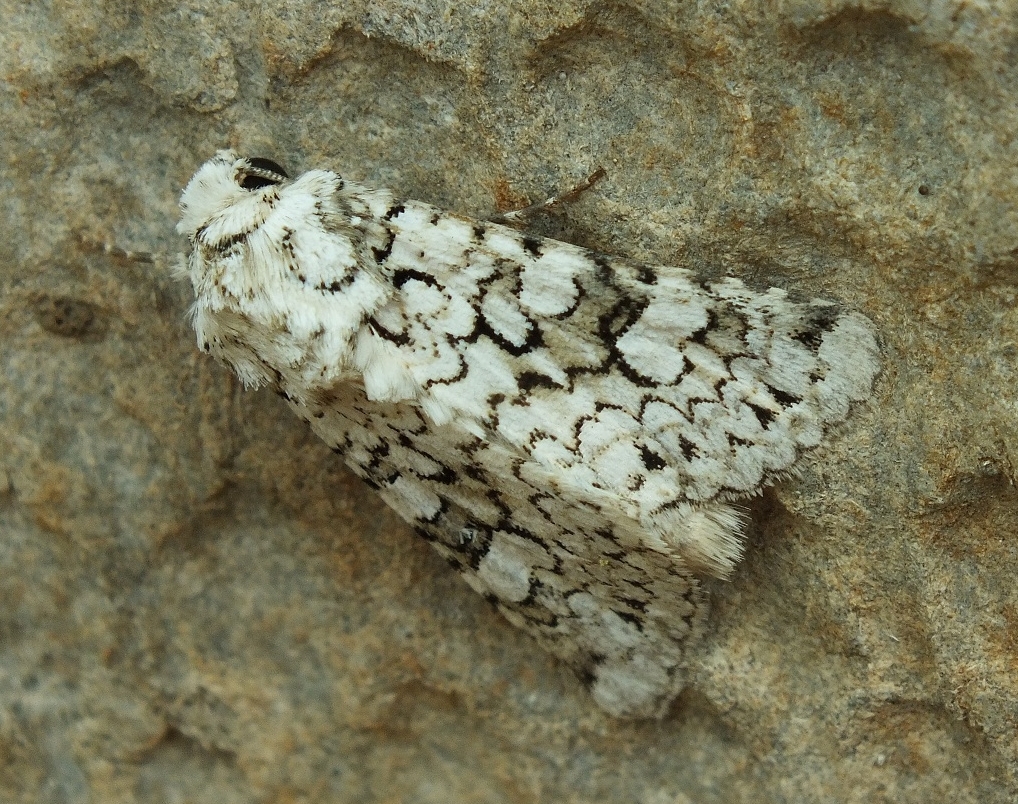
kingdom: Animalia
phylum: Arthropoda
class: Insecta
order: Lepidoptera
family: Noctuidae
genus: Hecatera
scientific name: Hecatera cappa
